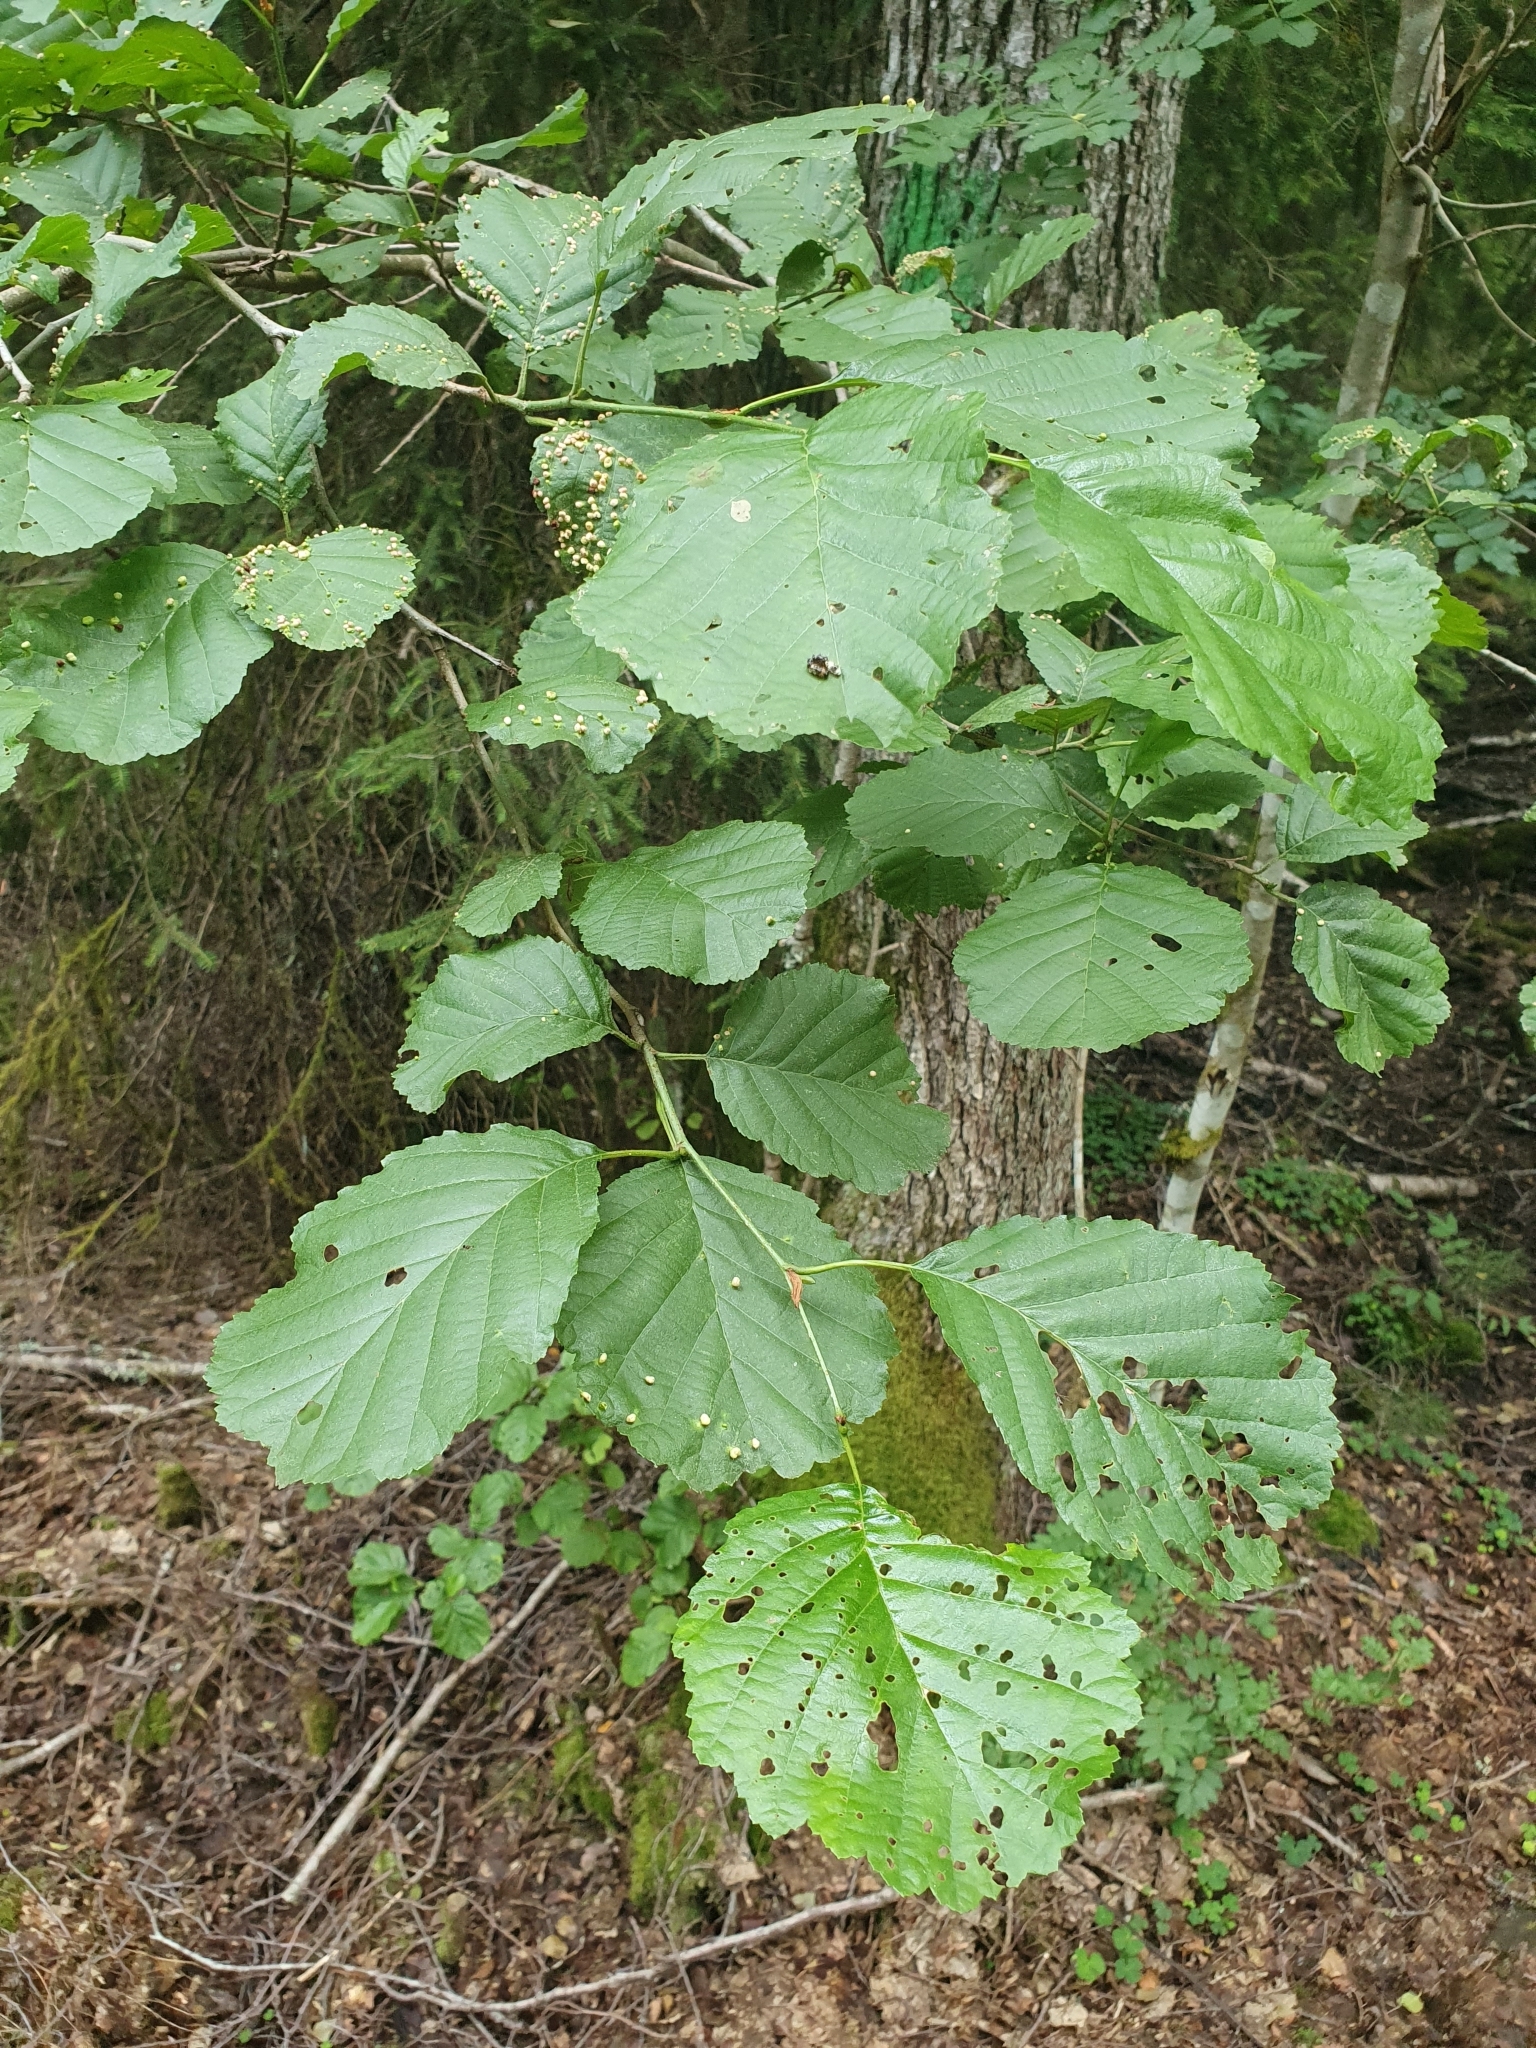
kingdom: Plantae
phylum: Tracheophyta
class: Magnoliopsida
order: Fagales
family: Betulaceae
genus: Alnus
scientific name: Alnus glutinosa
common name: Black alder
